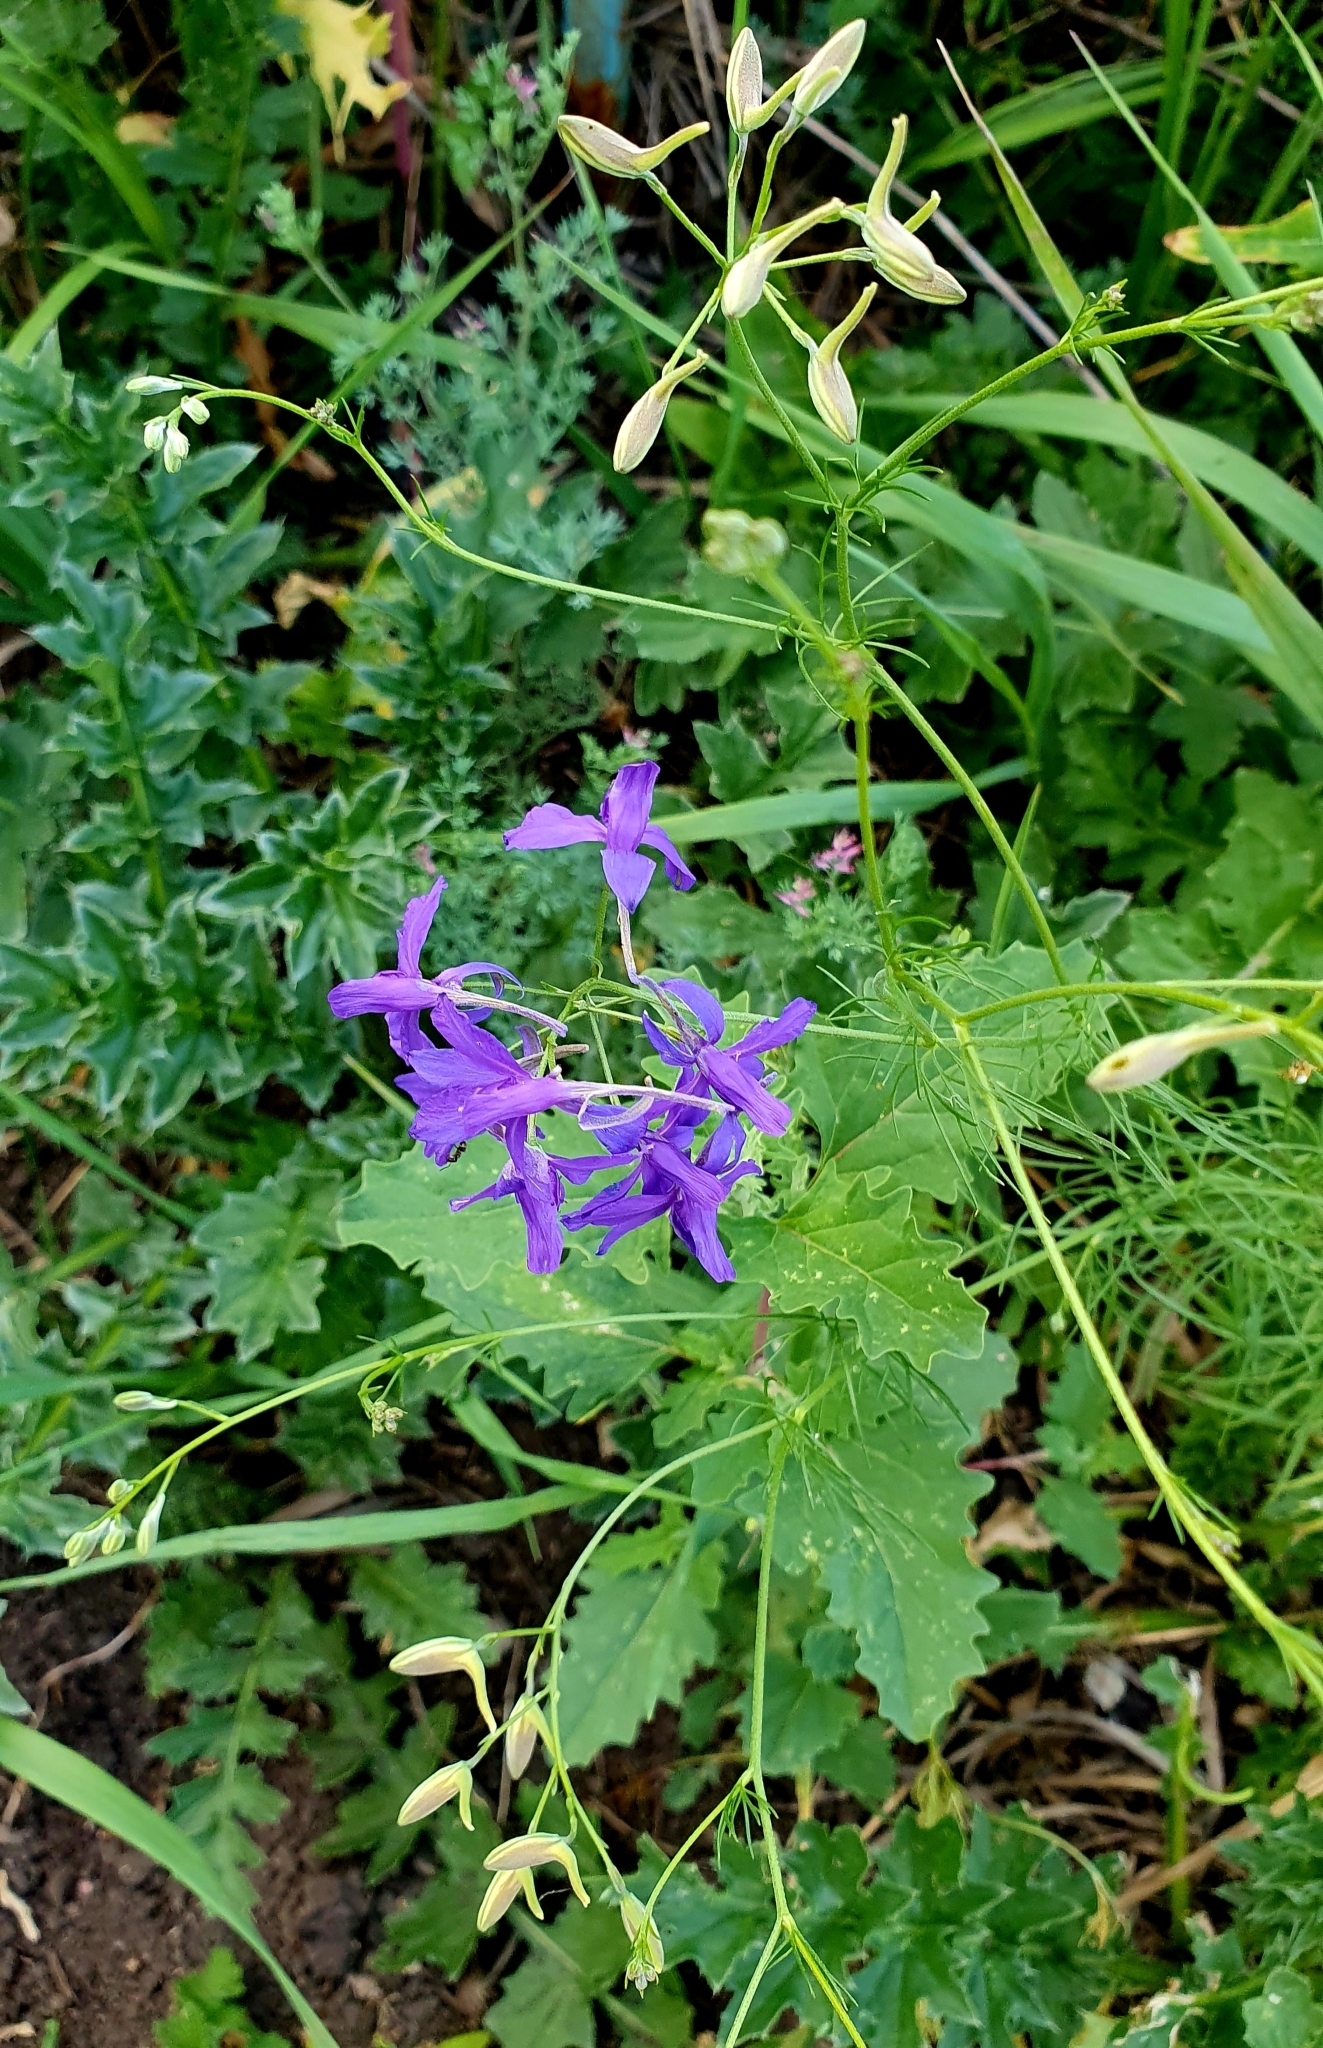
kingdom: Plantae
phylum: Tracheophyta
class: Magnoliopsida
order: Ranunculales
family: Ranunculaceae
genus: Delphinium
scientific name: Delphinium consolida
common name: Branching larkspur
